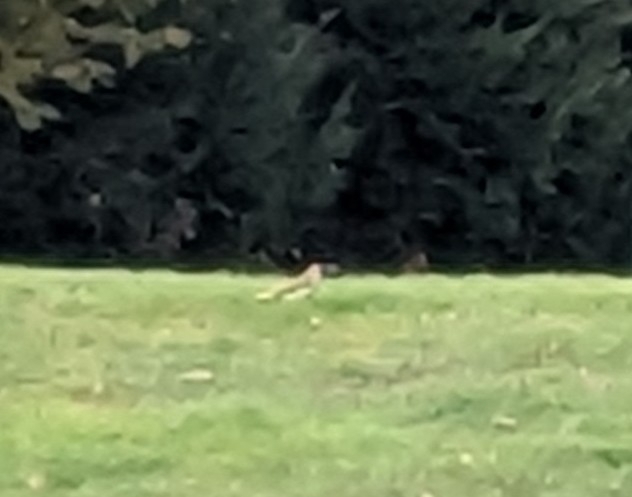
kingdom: Animalia
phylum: Chordata
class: Aves
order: Piciformes
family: Picidae
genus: Picus
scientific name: Picus viridis
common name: European green woodpecker
